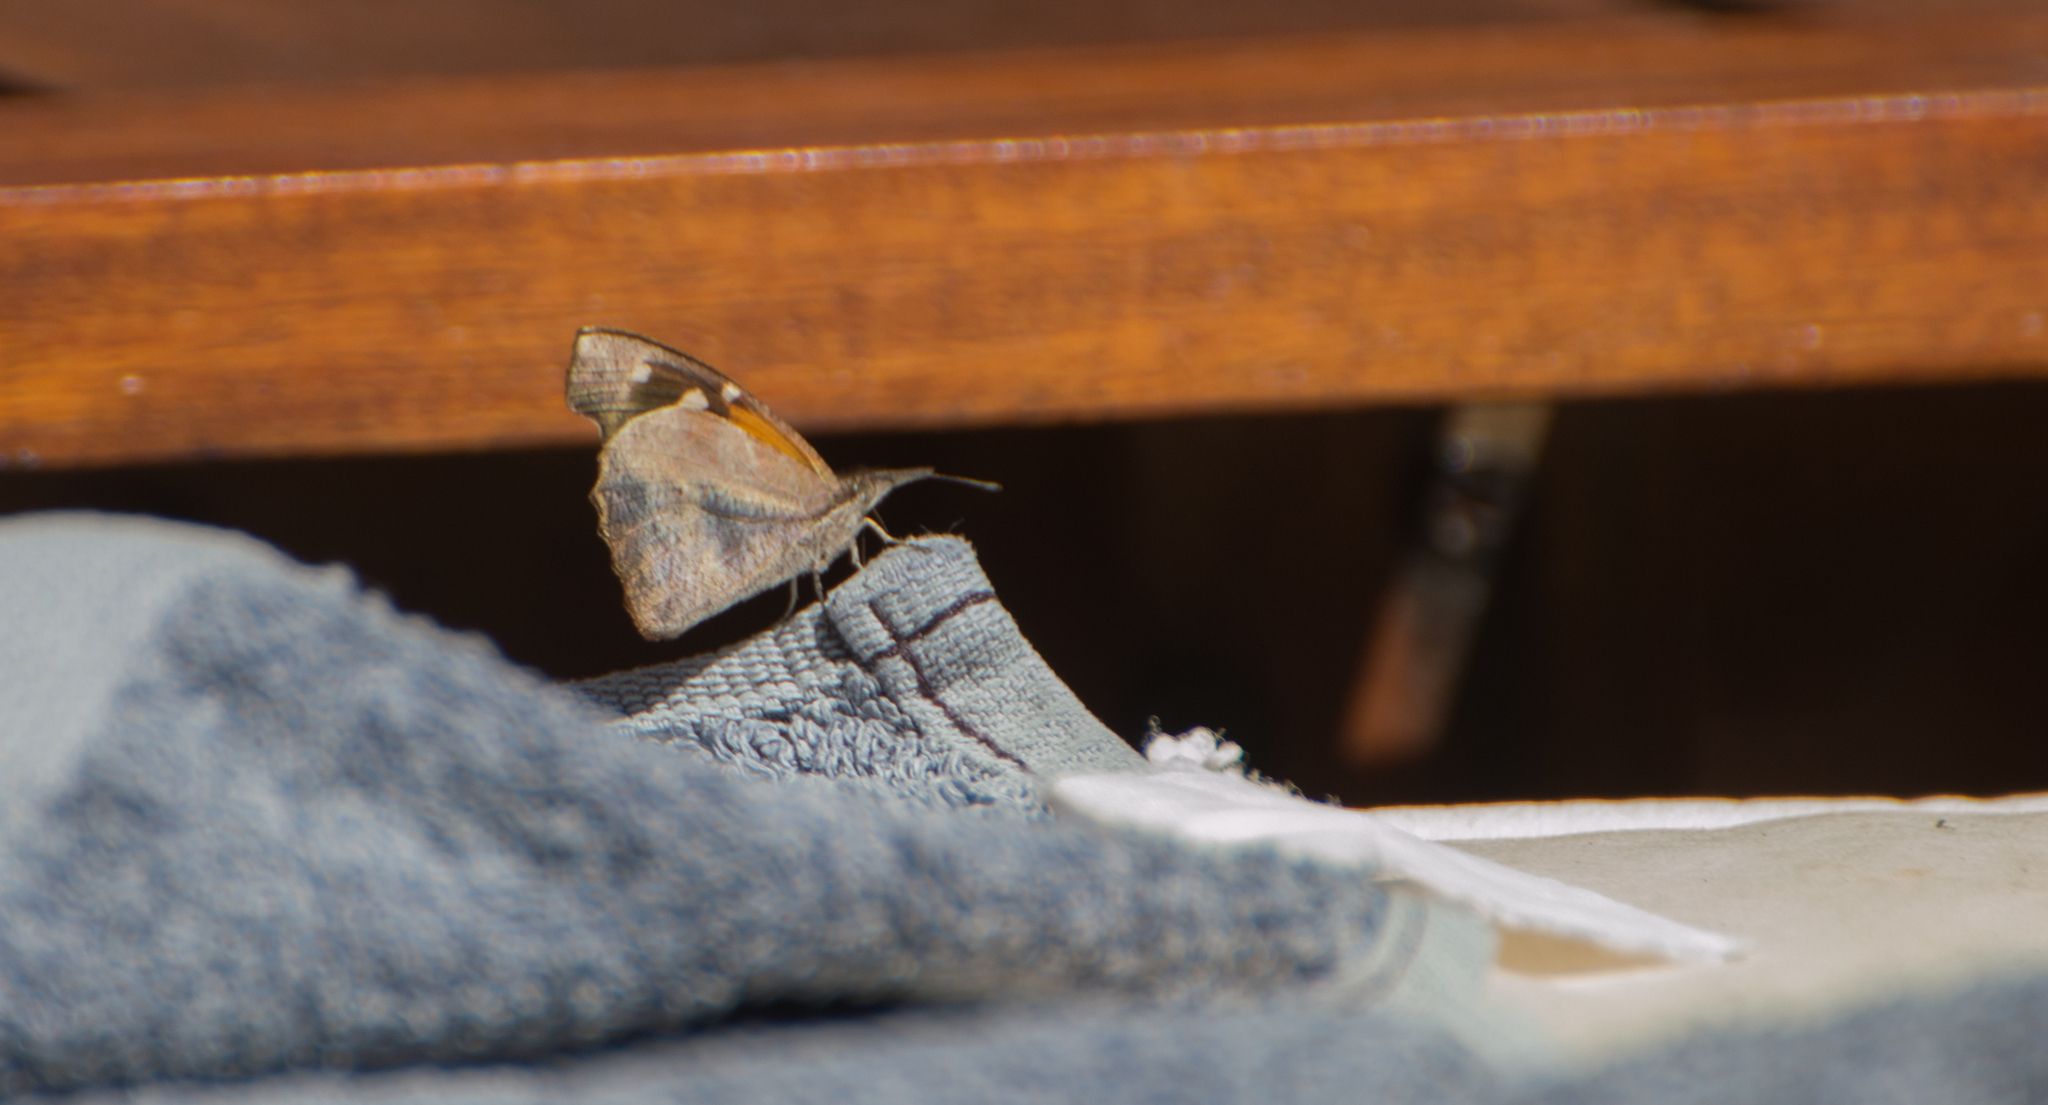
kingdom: Animalia
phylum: Arthropoda
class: Insecta
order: Lepidoptera
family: Nymphalidae
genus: Libytheana
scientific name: Libytheana carinenta
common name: American snout
